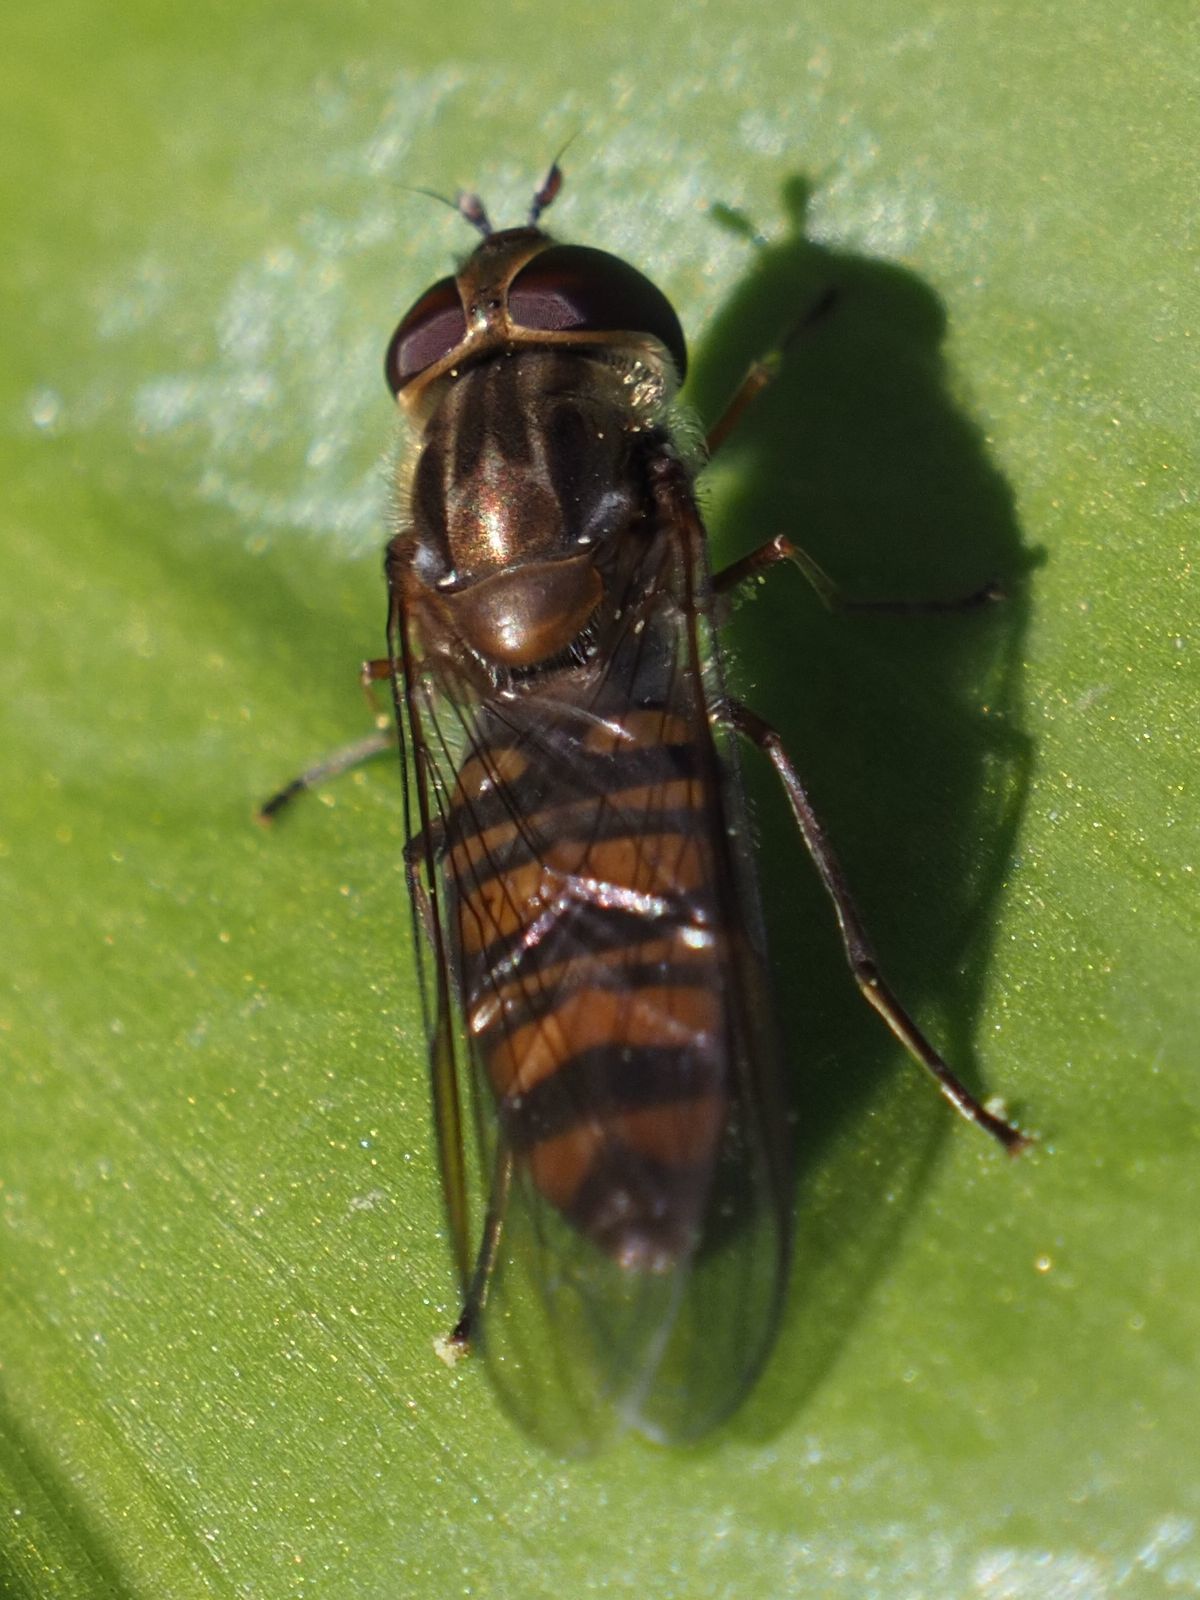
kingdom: Animalia
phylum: Arthropoda
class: Insecta
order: Diptera
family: Syrphidae
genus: Episyrphus
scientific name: Episyrphus balteatus
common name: Marmalade hoverfly
